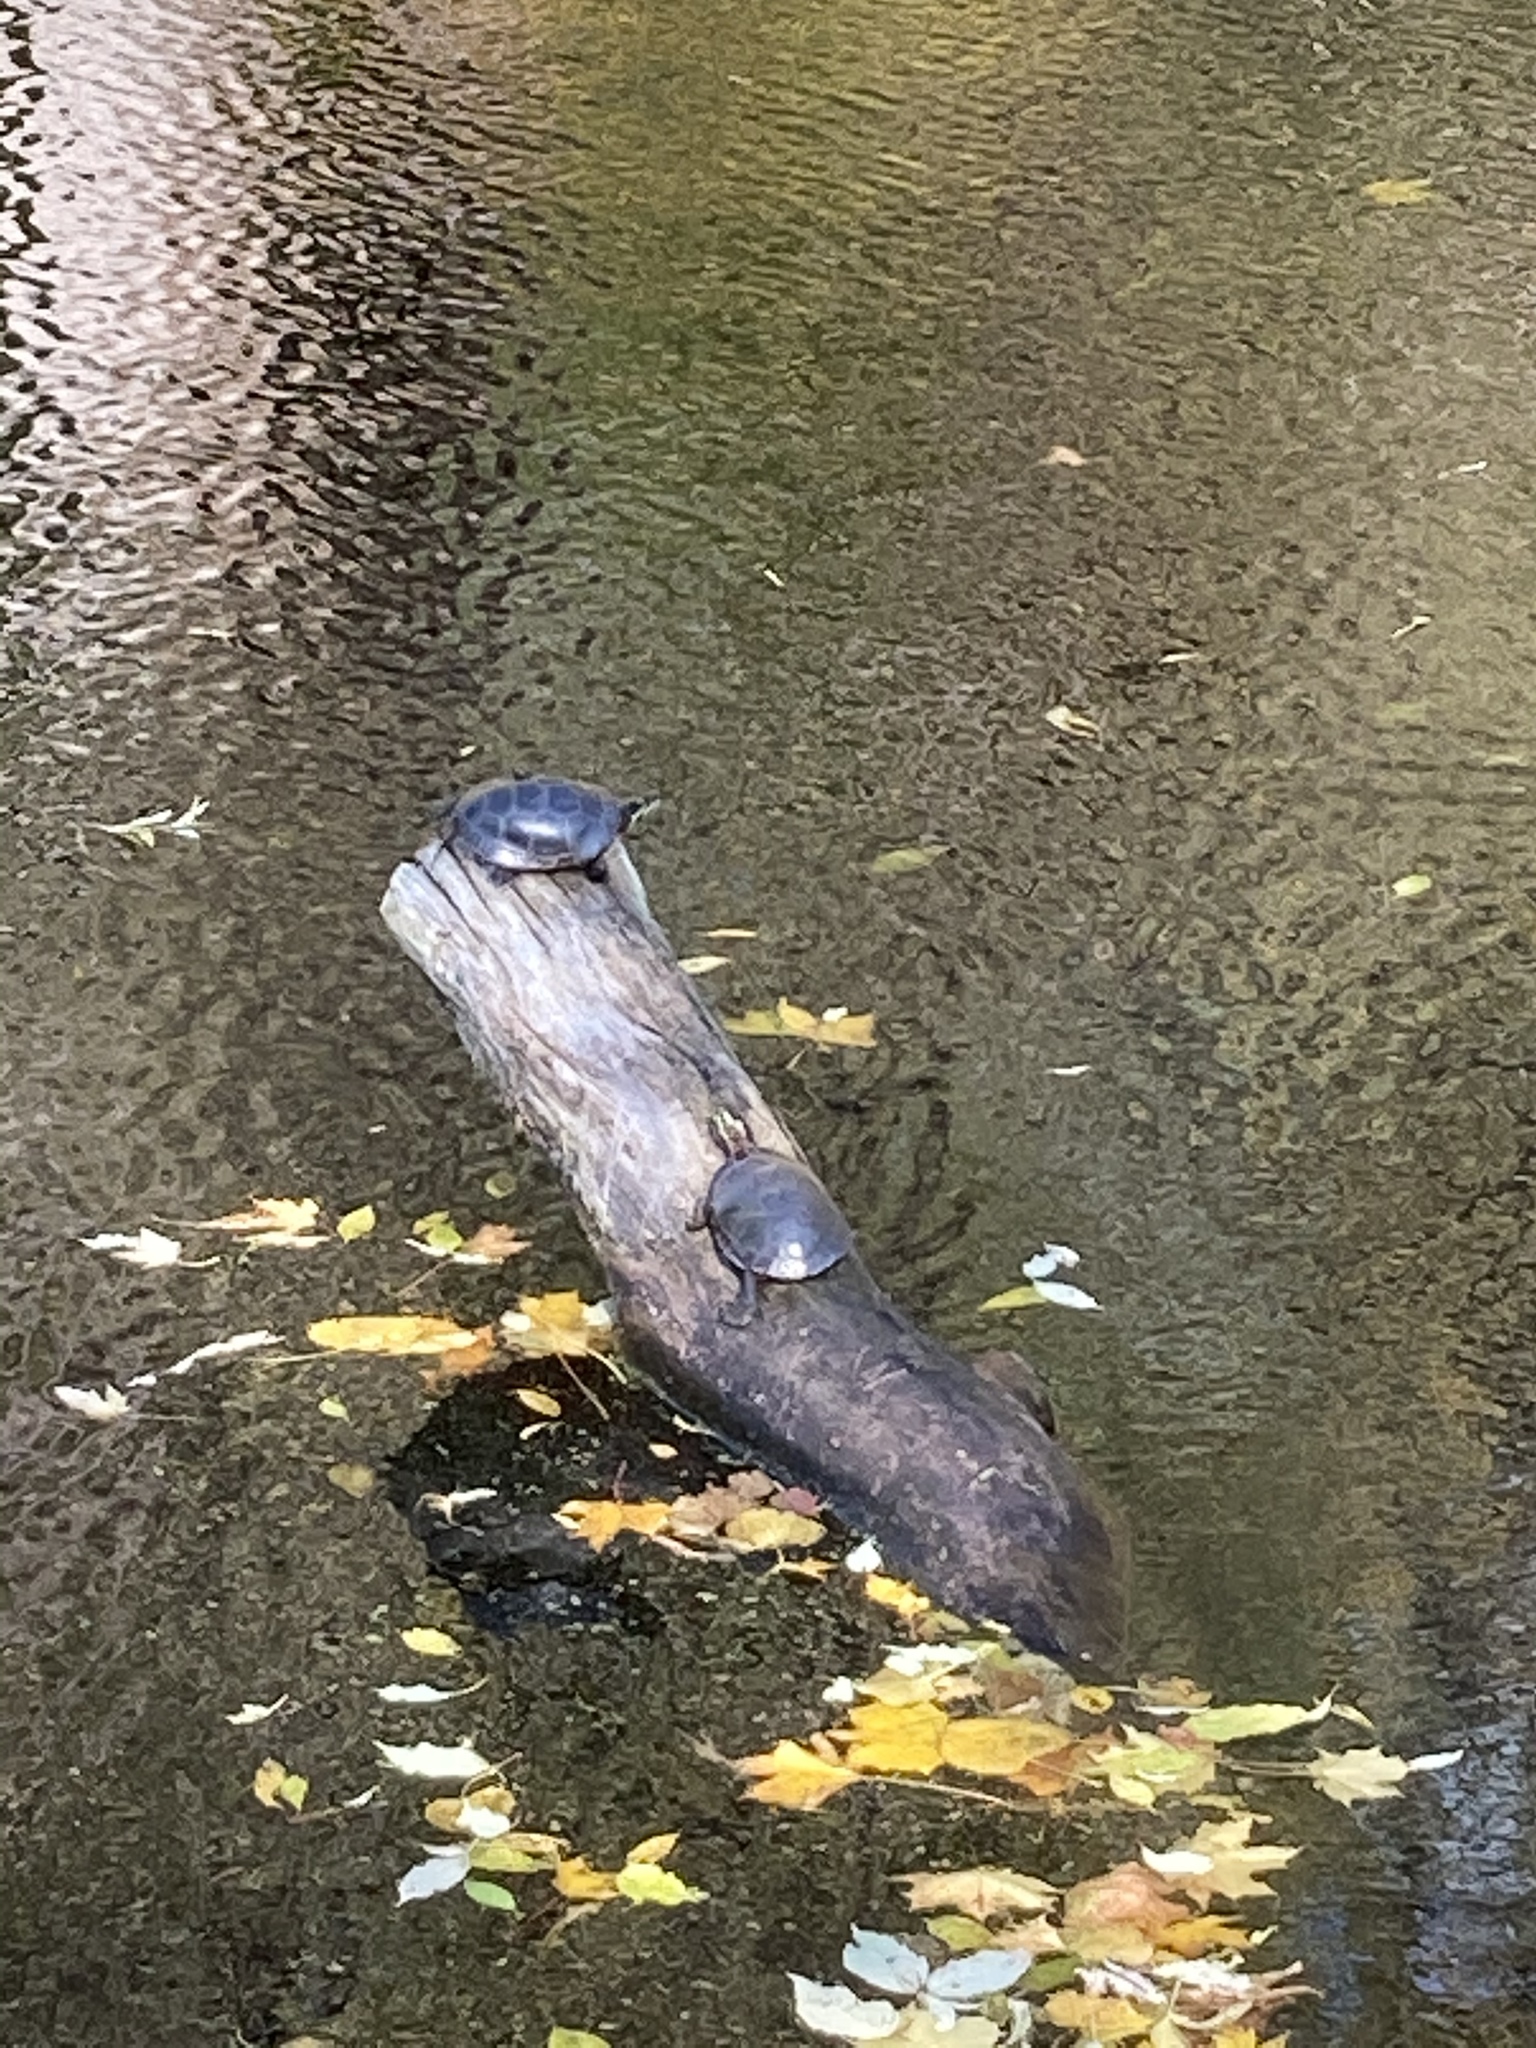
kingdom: Animalia
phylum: Chordata
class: Testudines
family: Emydidae
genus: Chrysemys
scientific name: Chrysemys picta
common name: Painted turtle
